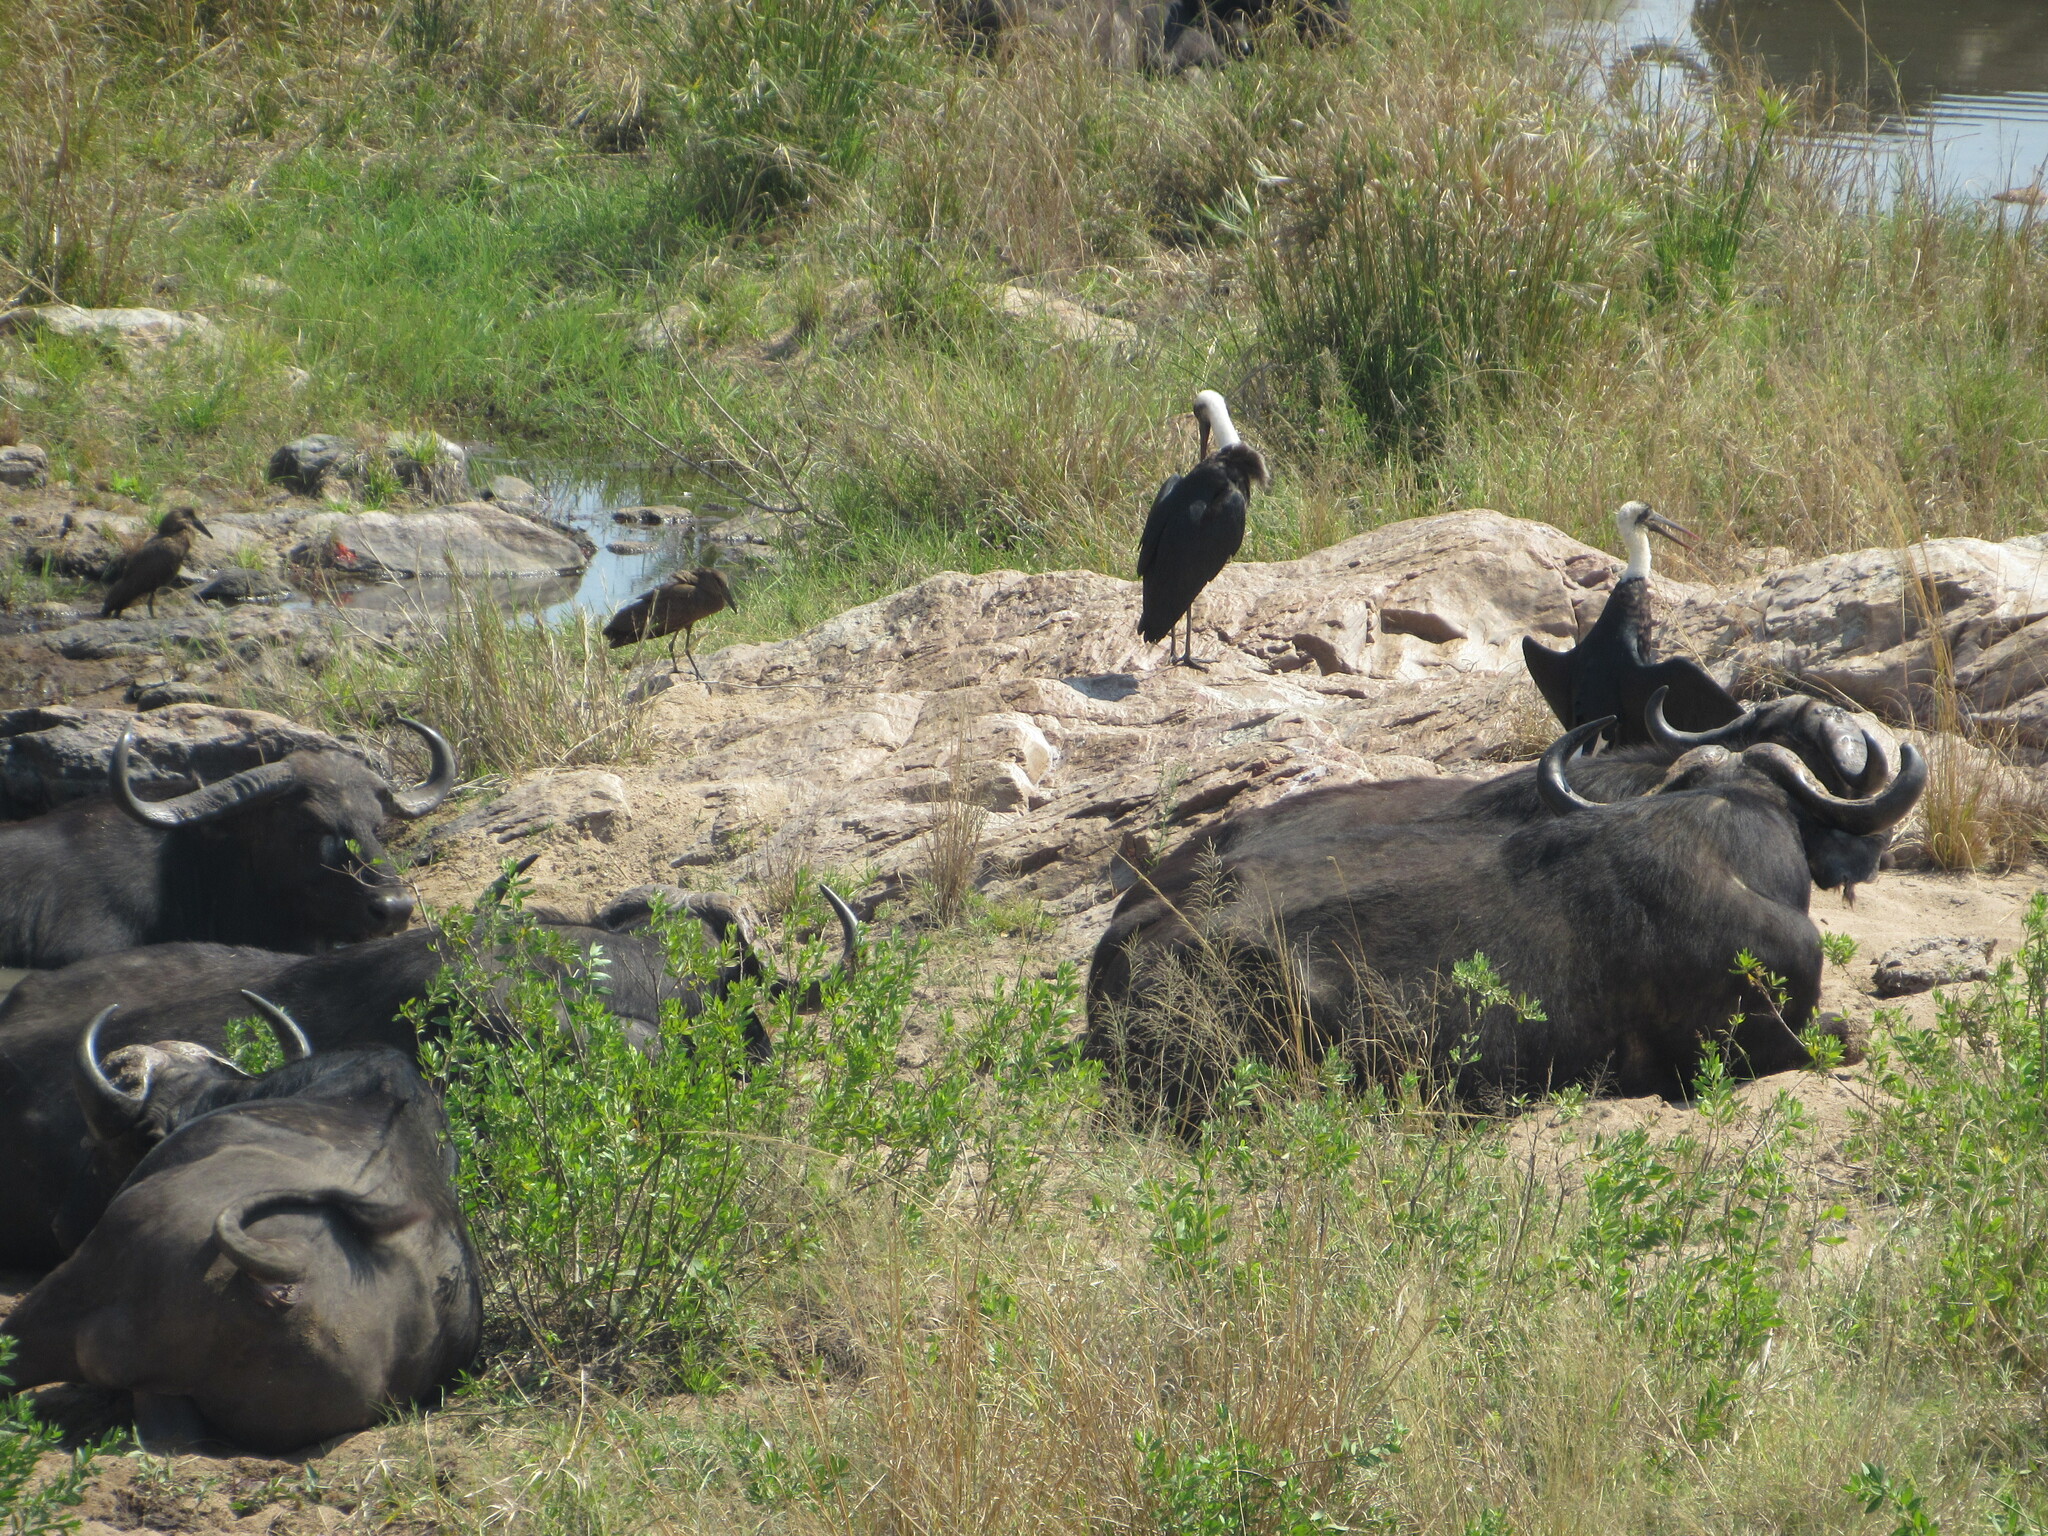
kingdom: Animalia
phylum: Chordata
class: Aves
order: Ciconiiformes
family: Ciconiidae
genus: Ciconia
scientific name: Ciconia microscelis
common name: African woollyneck
